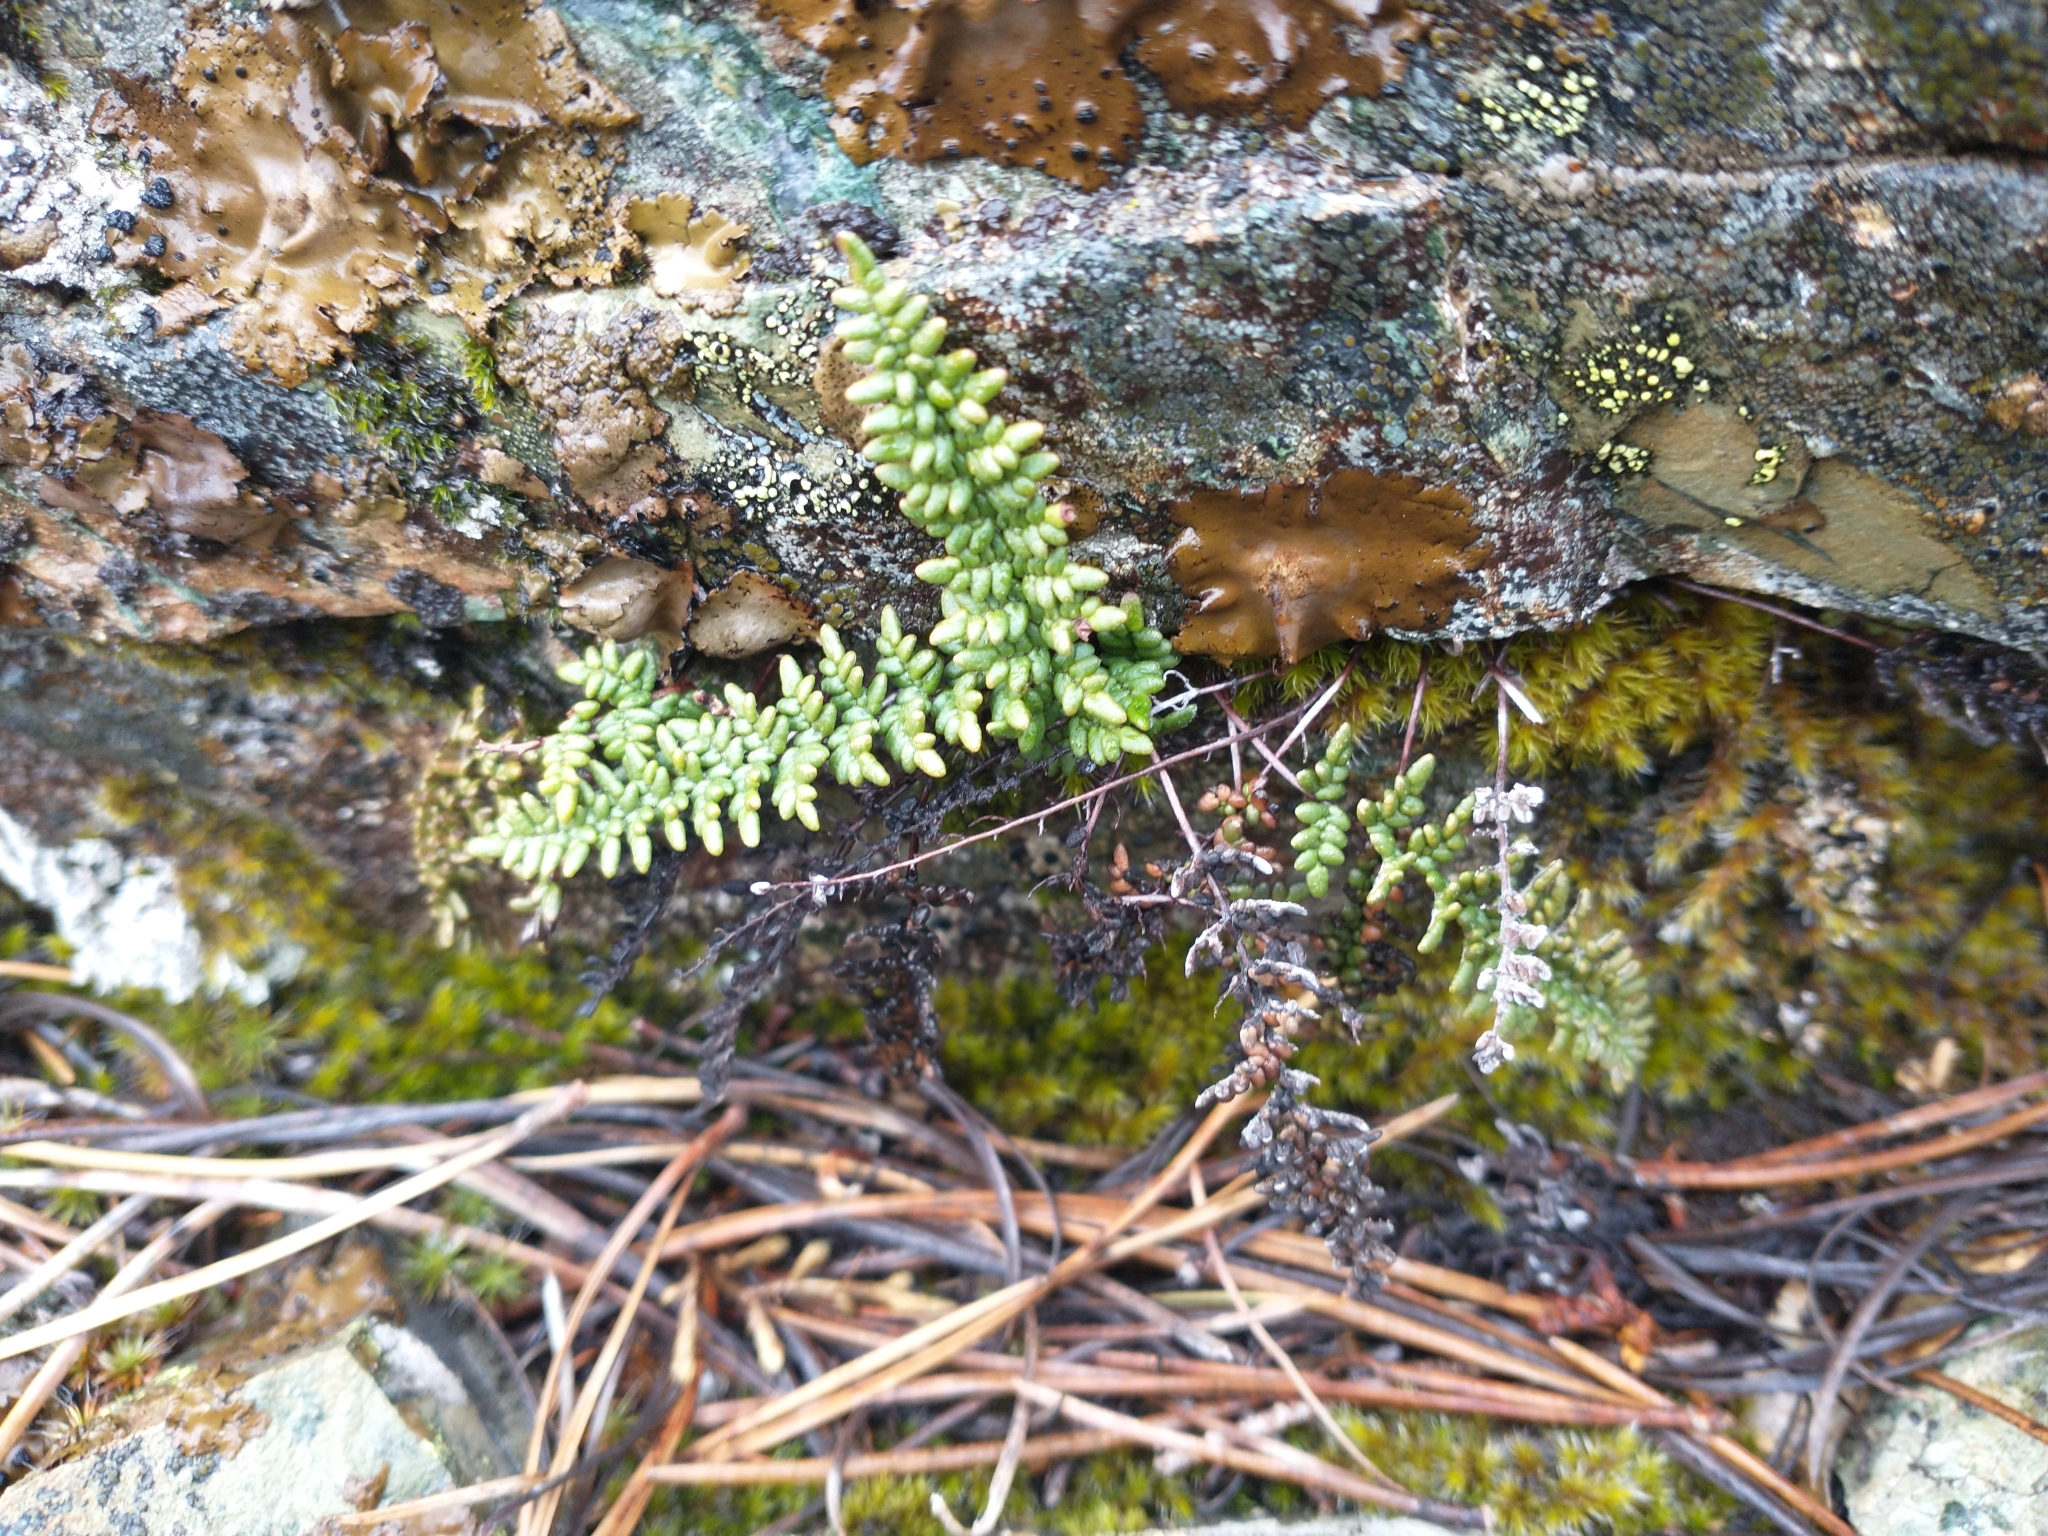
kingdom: Plantae
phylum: Tracheophyta
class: Polypodiopsida
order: Polypodiales
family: Pteridaceae
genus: Myriopteris
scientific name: Myriopteris gracillima
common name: Lace fern
